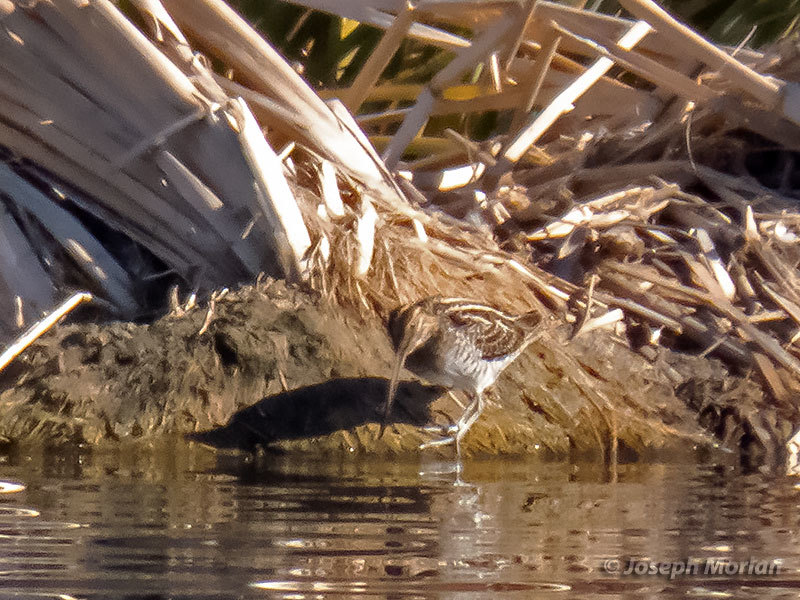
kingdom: Animalia
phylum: Chordata
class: Aves
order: Charadriiformes
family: Scolopacidae
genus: Gallinago
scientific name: Gallinago delicata
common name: Wilson's snipe
